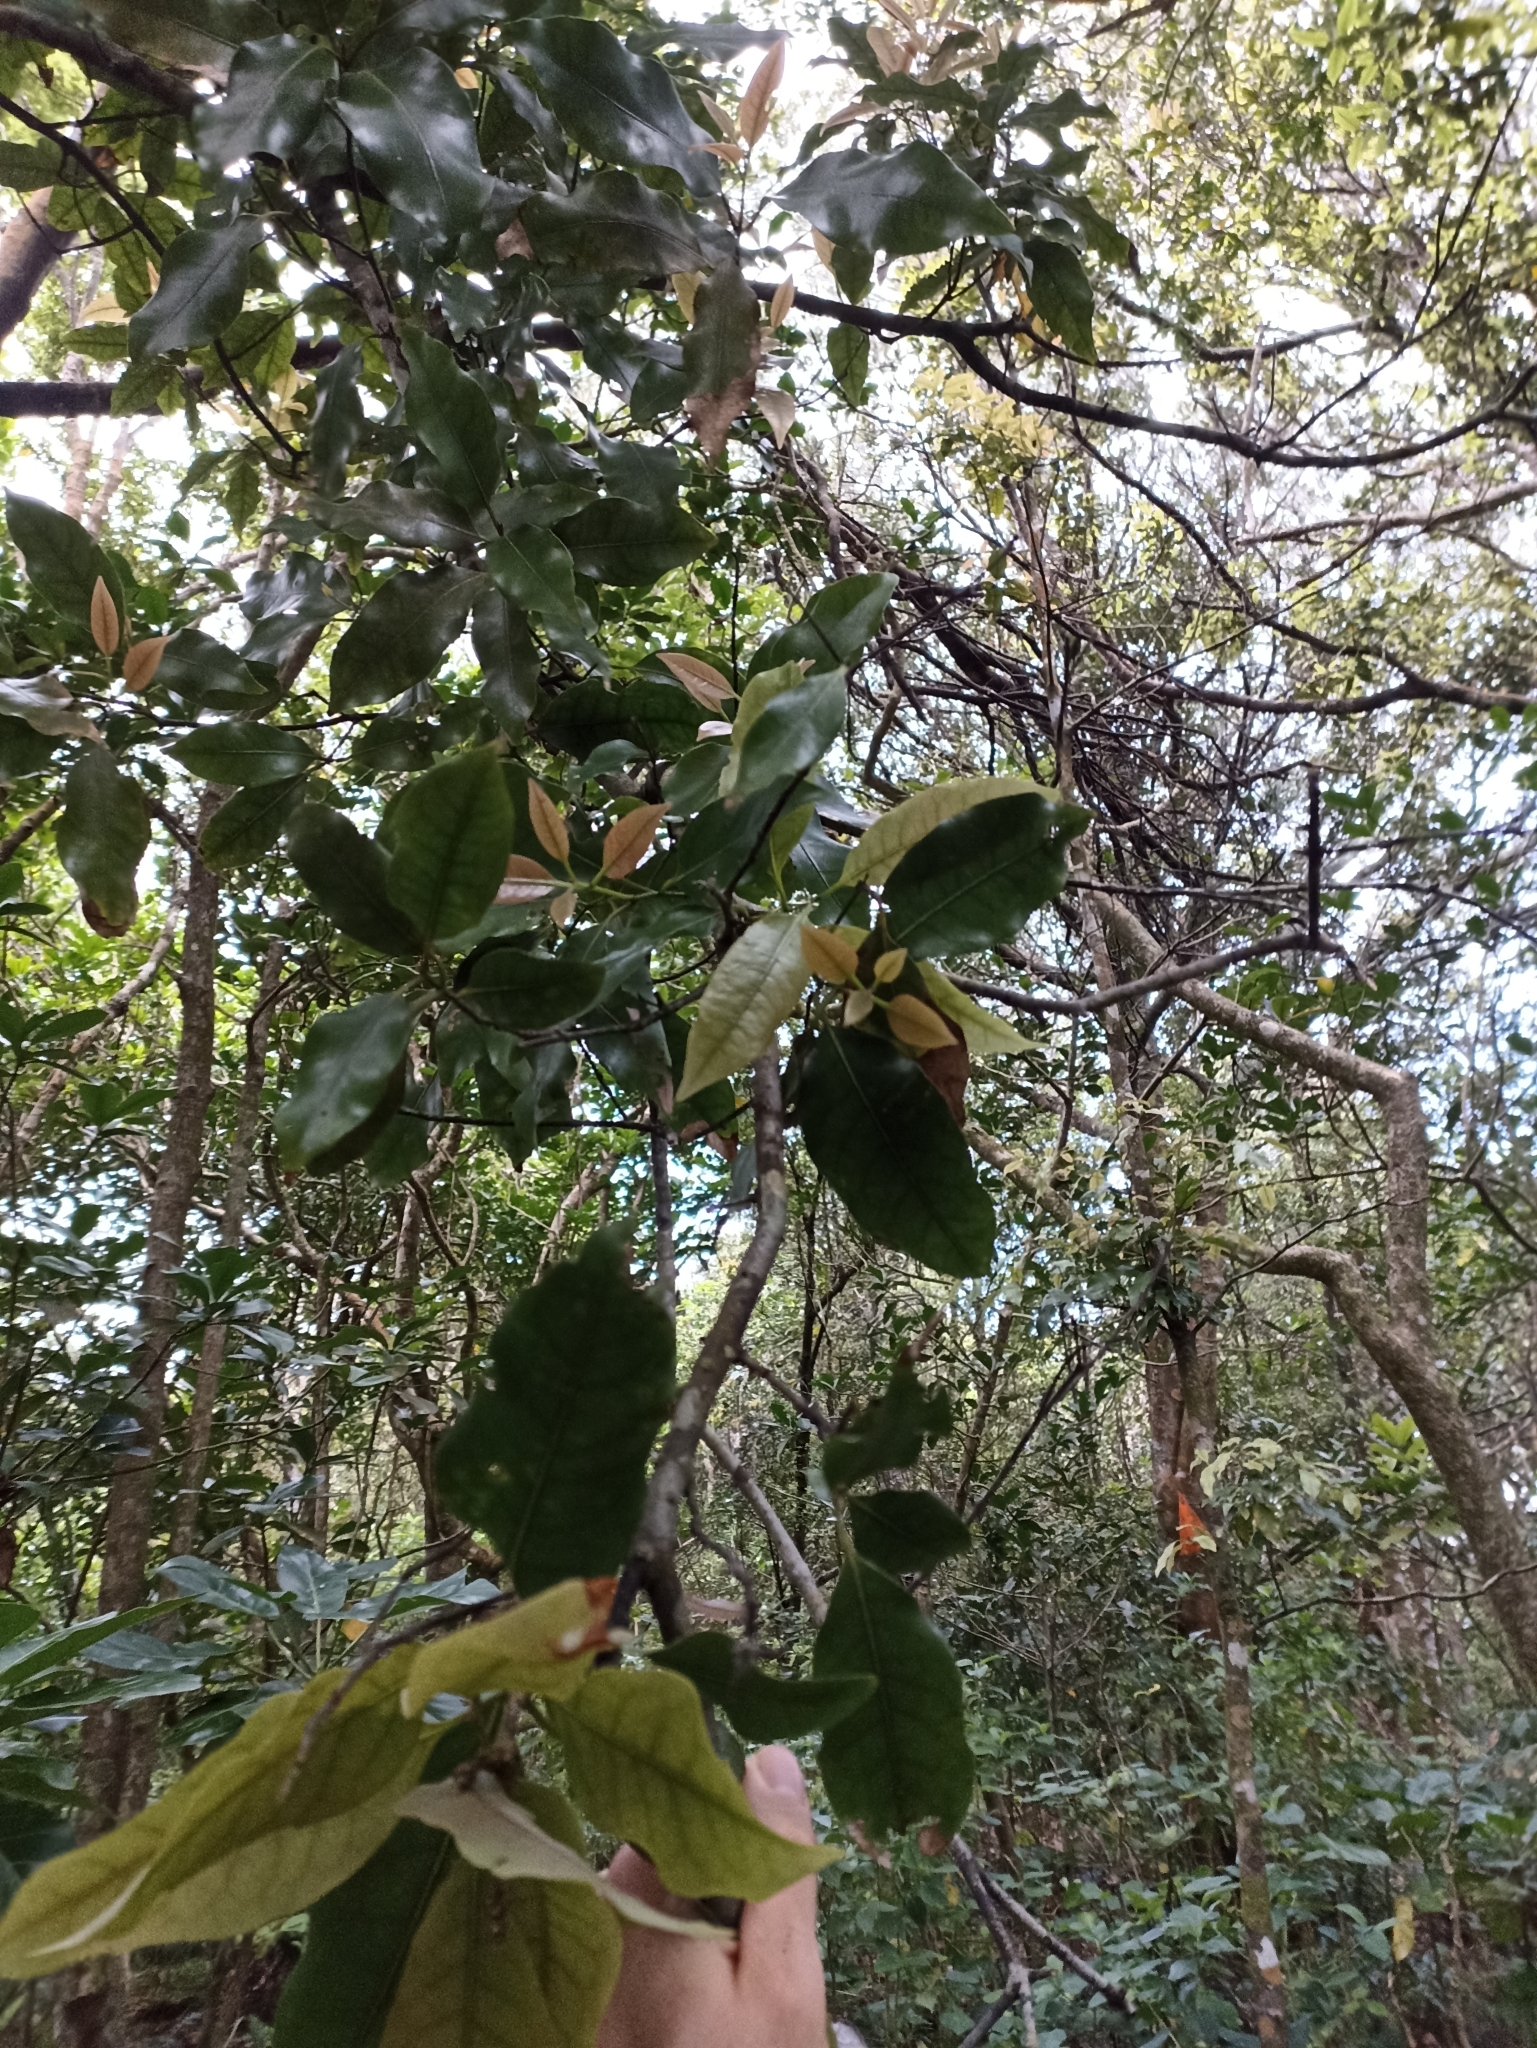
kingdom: Plantae
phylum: Tracheophyta
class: Magnoliopsida
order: Laurales
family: Lauraceae
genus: Beilschmiedia
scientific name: Beilschmiedia tawa
